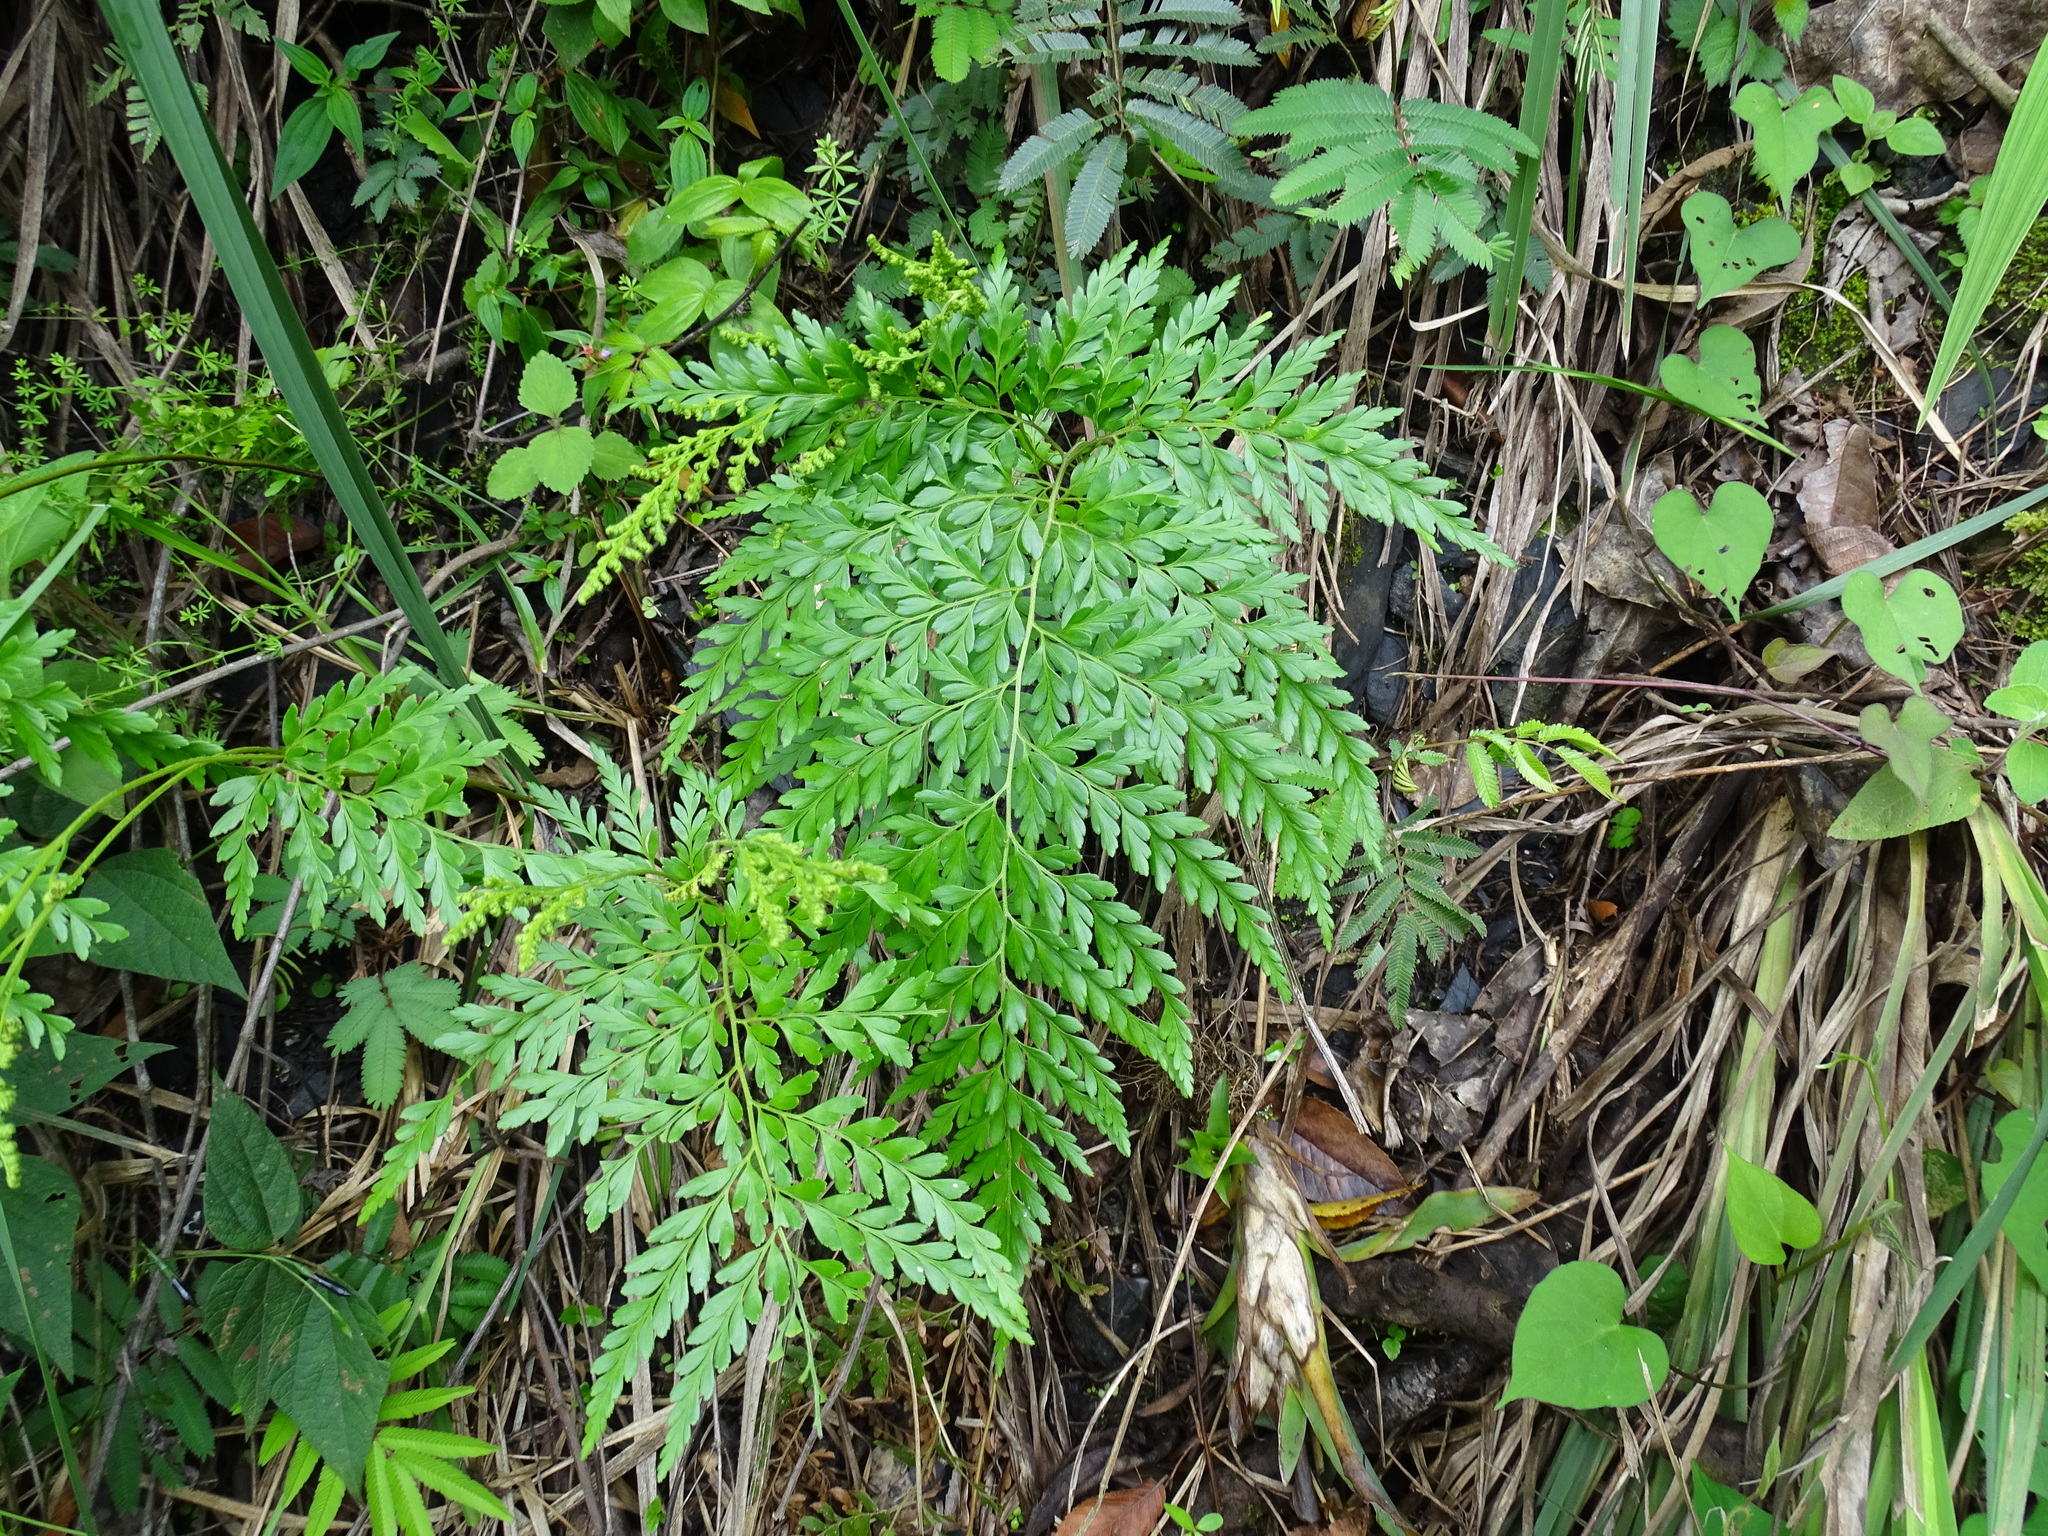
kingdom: Plantae
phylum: Tracheophyta
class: Polypodiopsida
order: Schizaeales
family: Anemiaceae
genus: Anemia
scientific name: Anemia adiantifolia
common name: Pine fern
